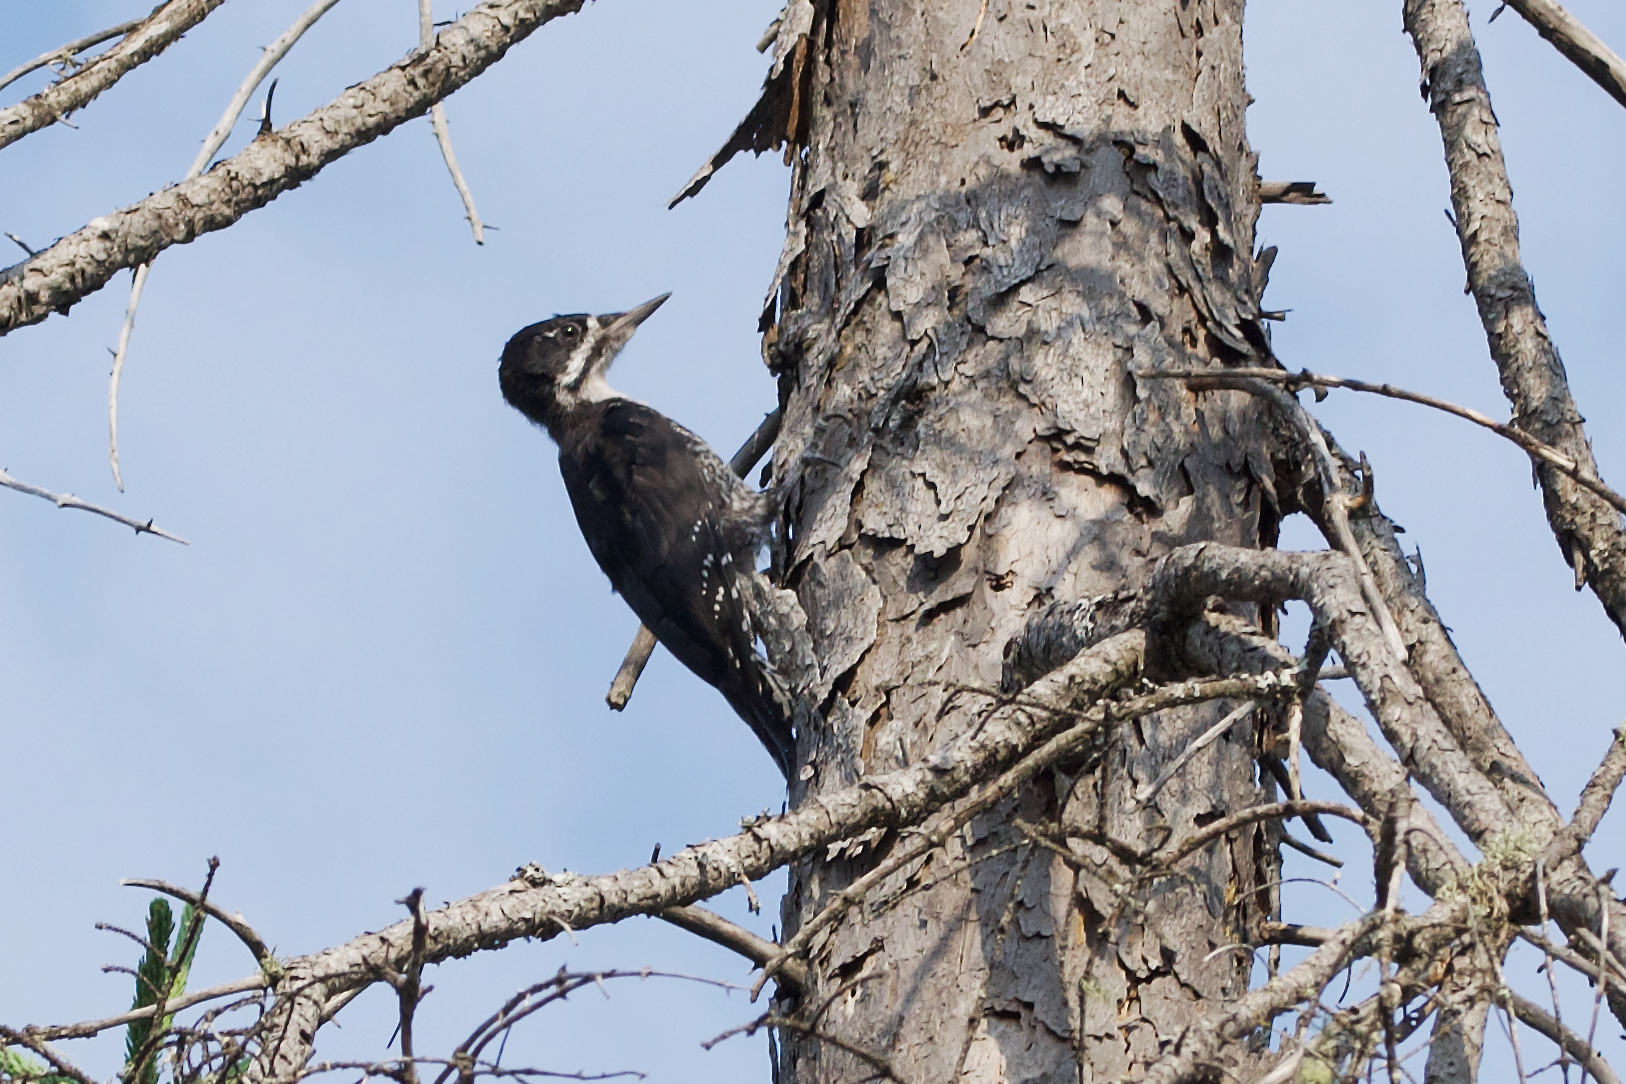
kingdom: Animalia
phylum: Chordata
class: Aves
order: Piciformes
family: Picidae
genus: Picoides
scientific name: Picoides arcticus
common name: Black-backed woodpecker
